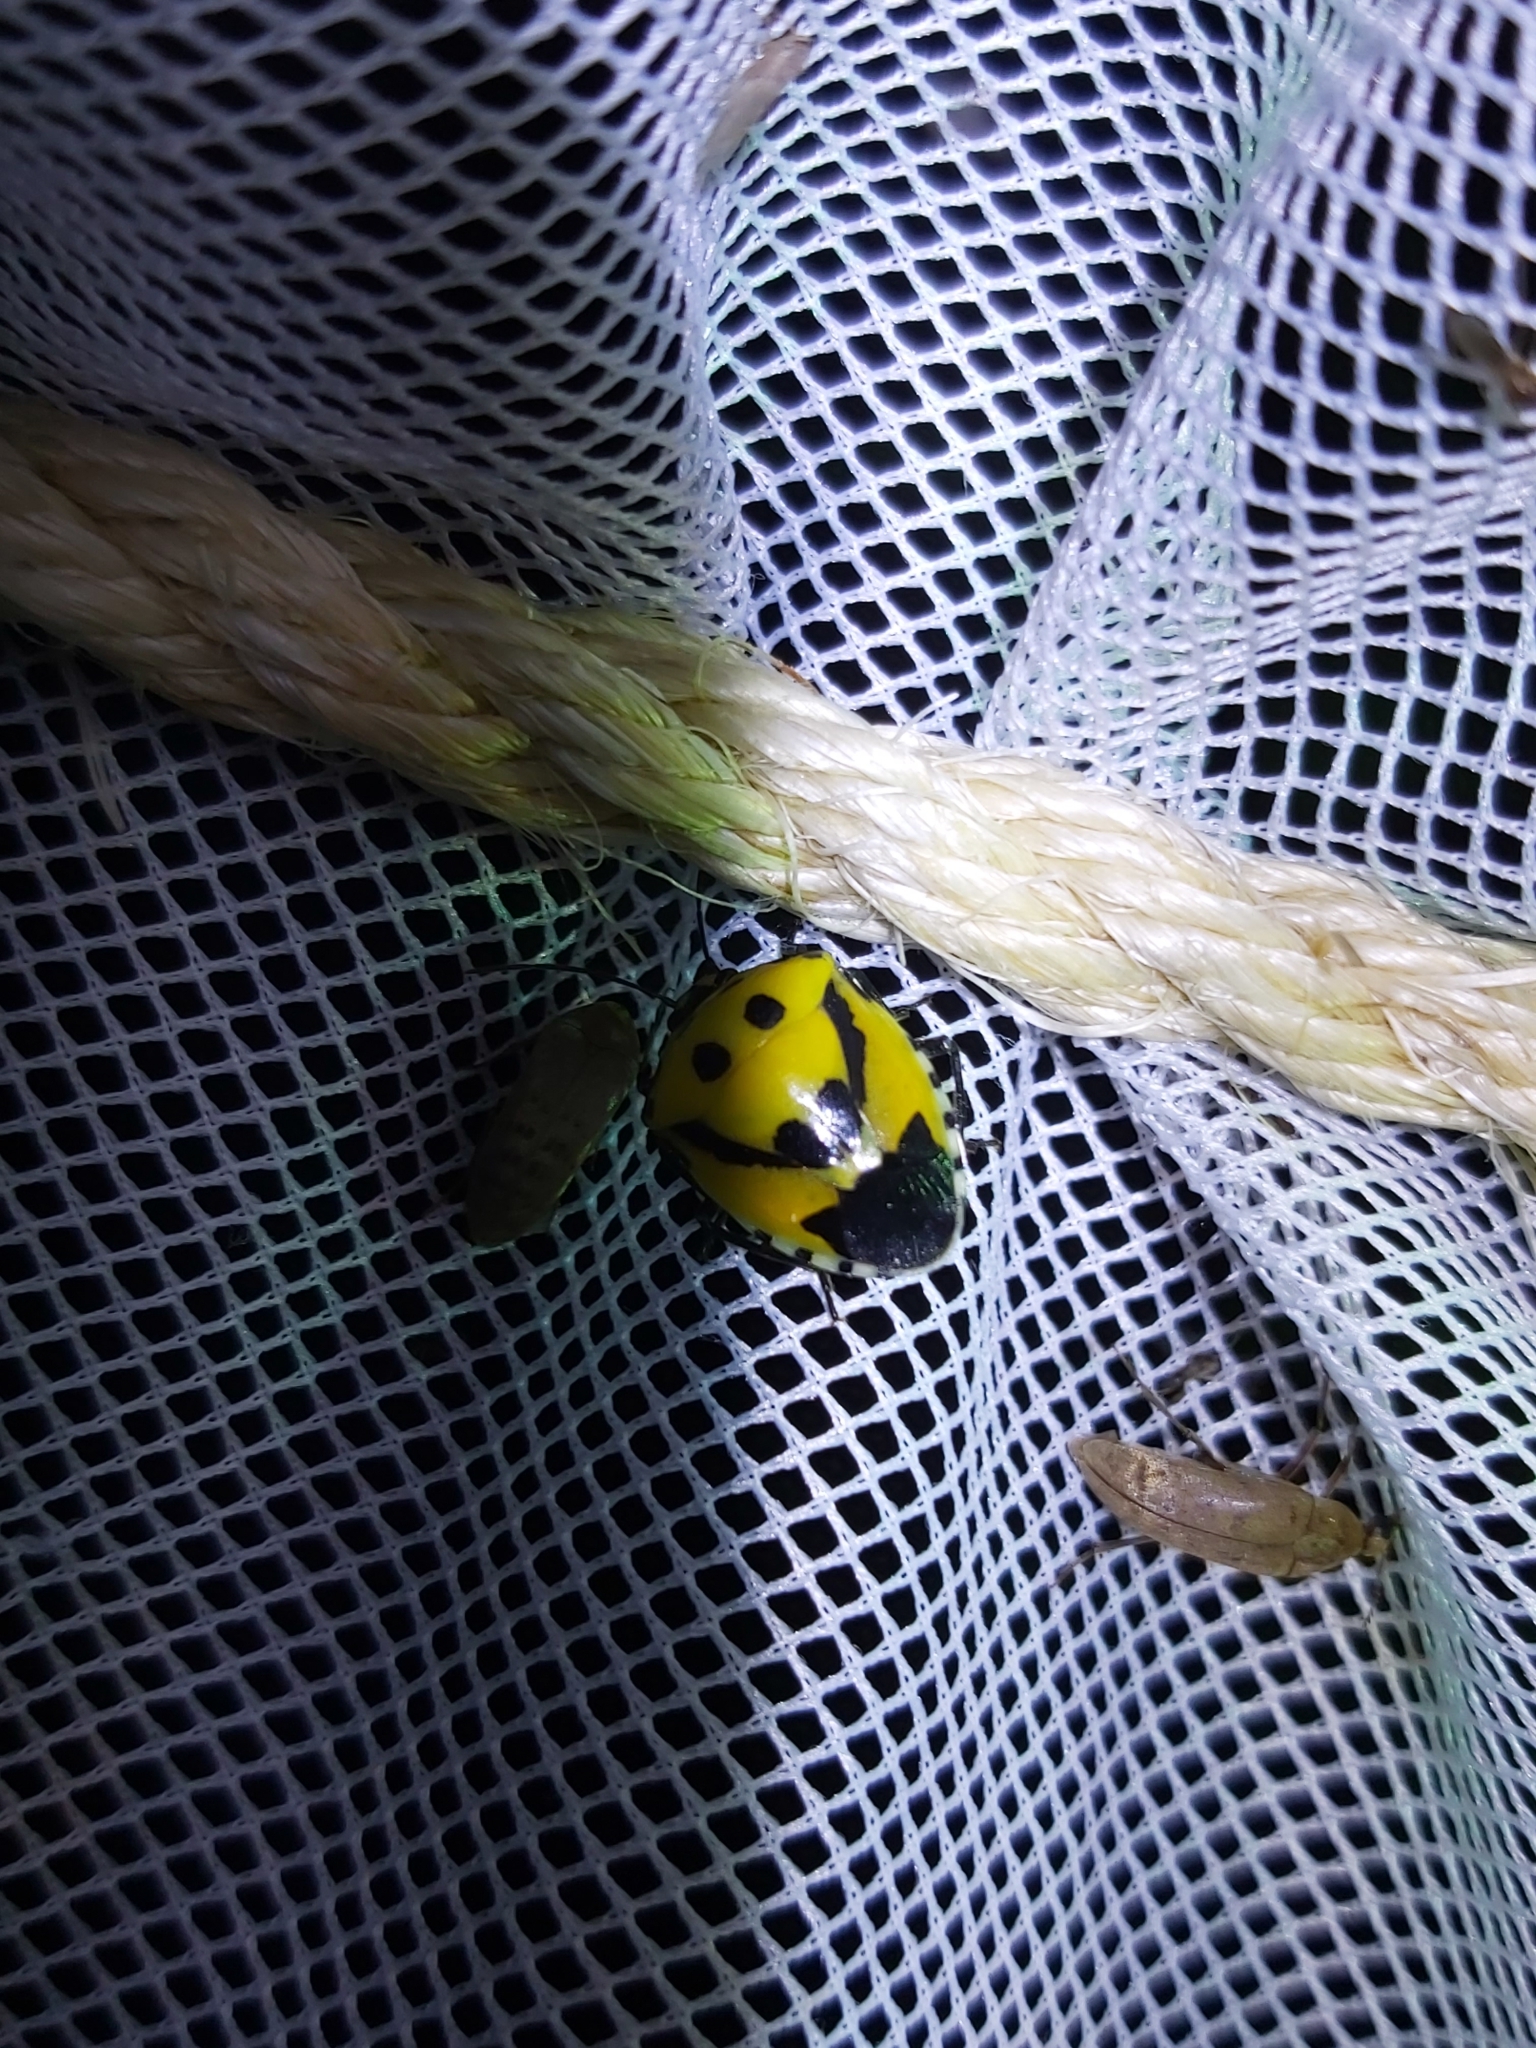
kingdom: Animalia
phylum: Arthropoda
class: Insecta
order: Hemiptera
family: Pentatomidae
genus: Hyrmine
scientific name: Hyrmine
